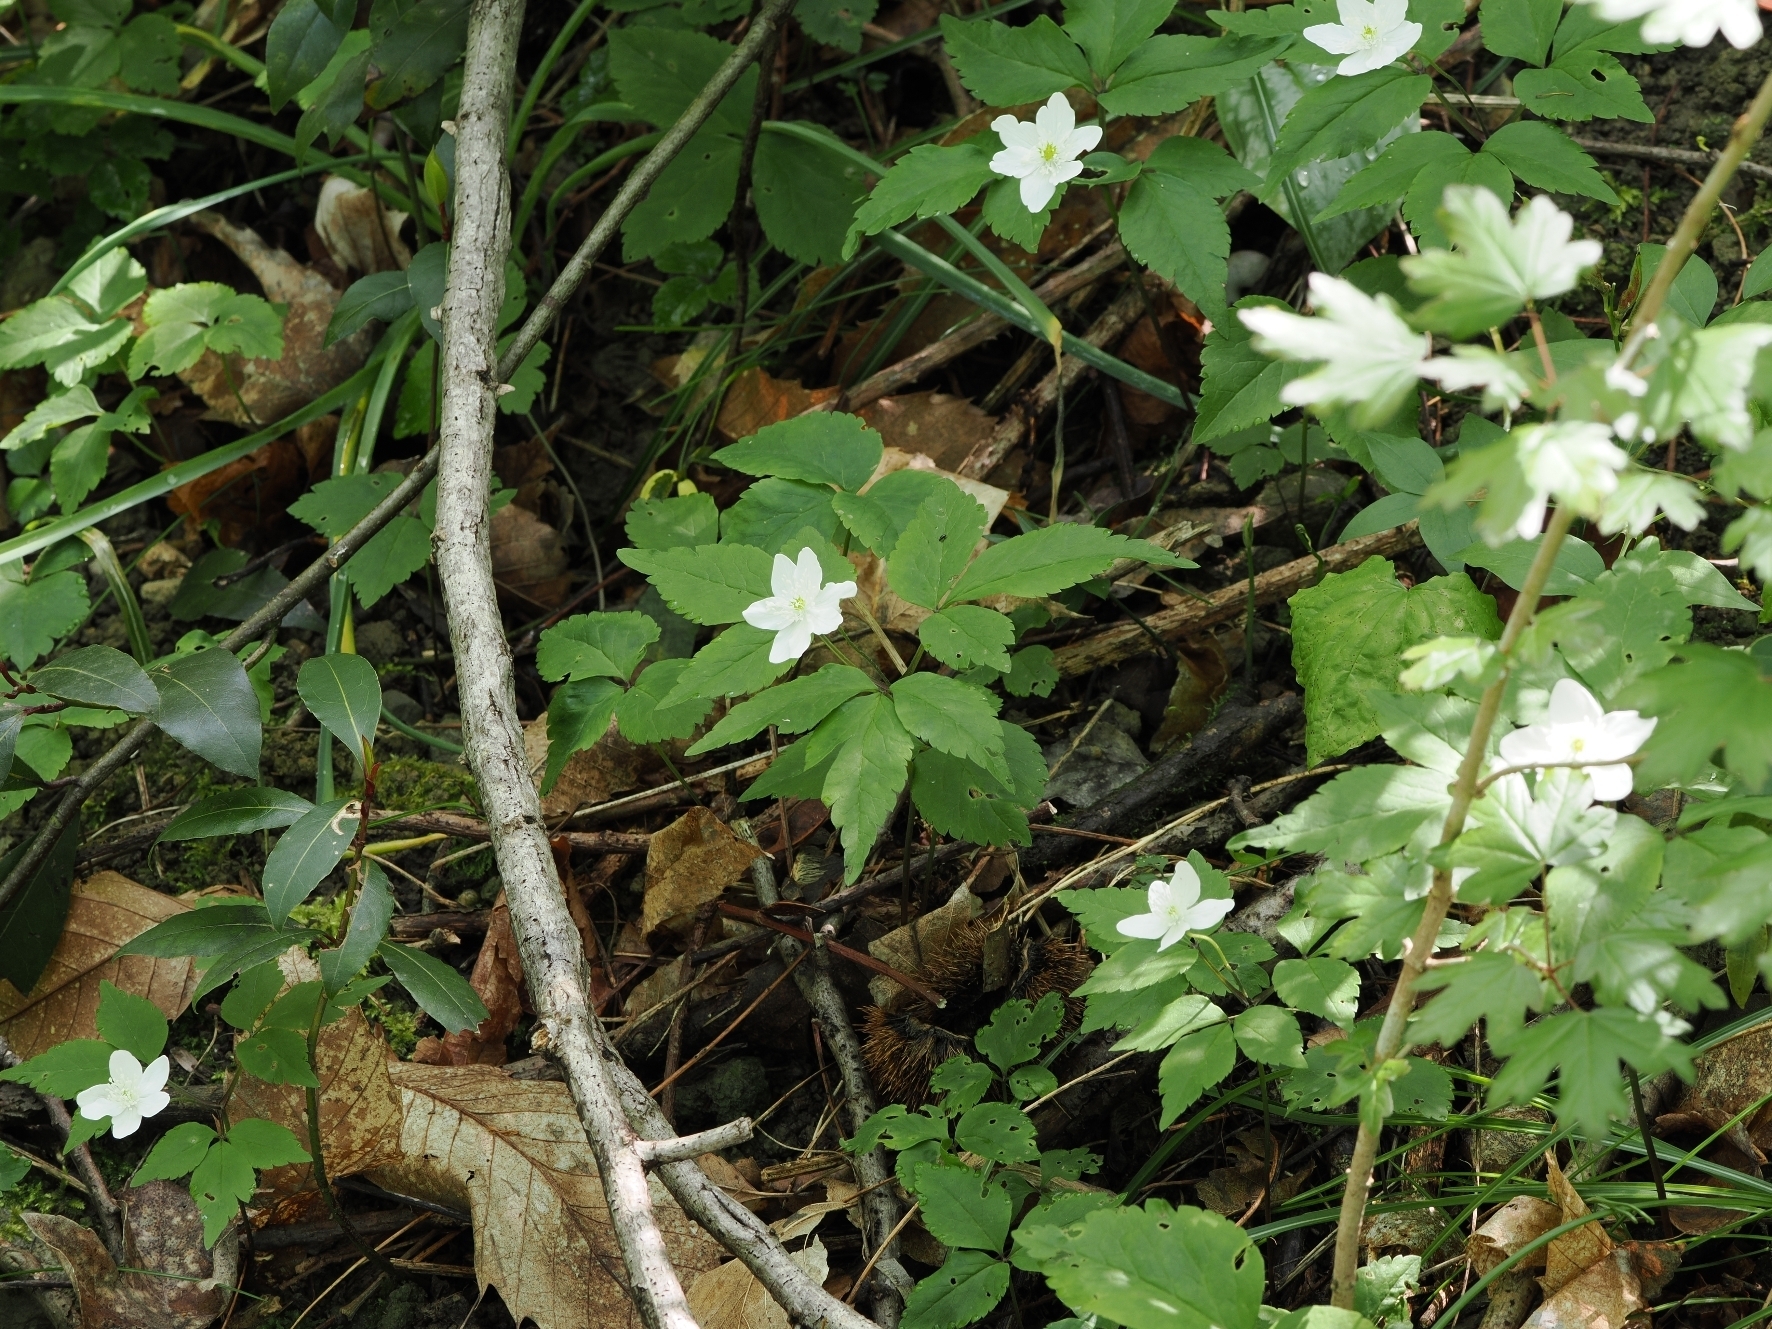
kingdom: Plantae
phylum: Tracheophyta
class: Magnoliopsida
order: Ranunculales
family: Ranunculaceae
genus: Anemone
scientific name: Anemone trifolia
